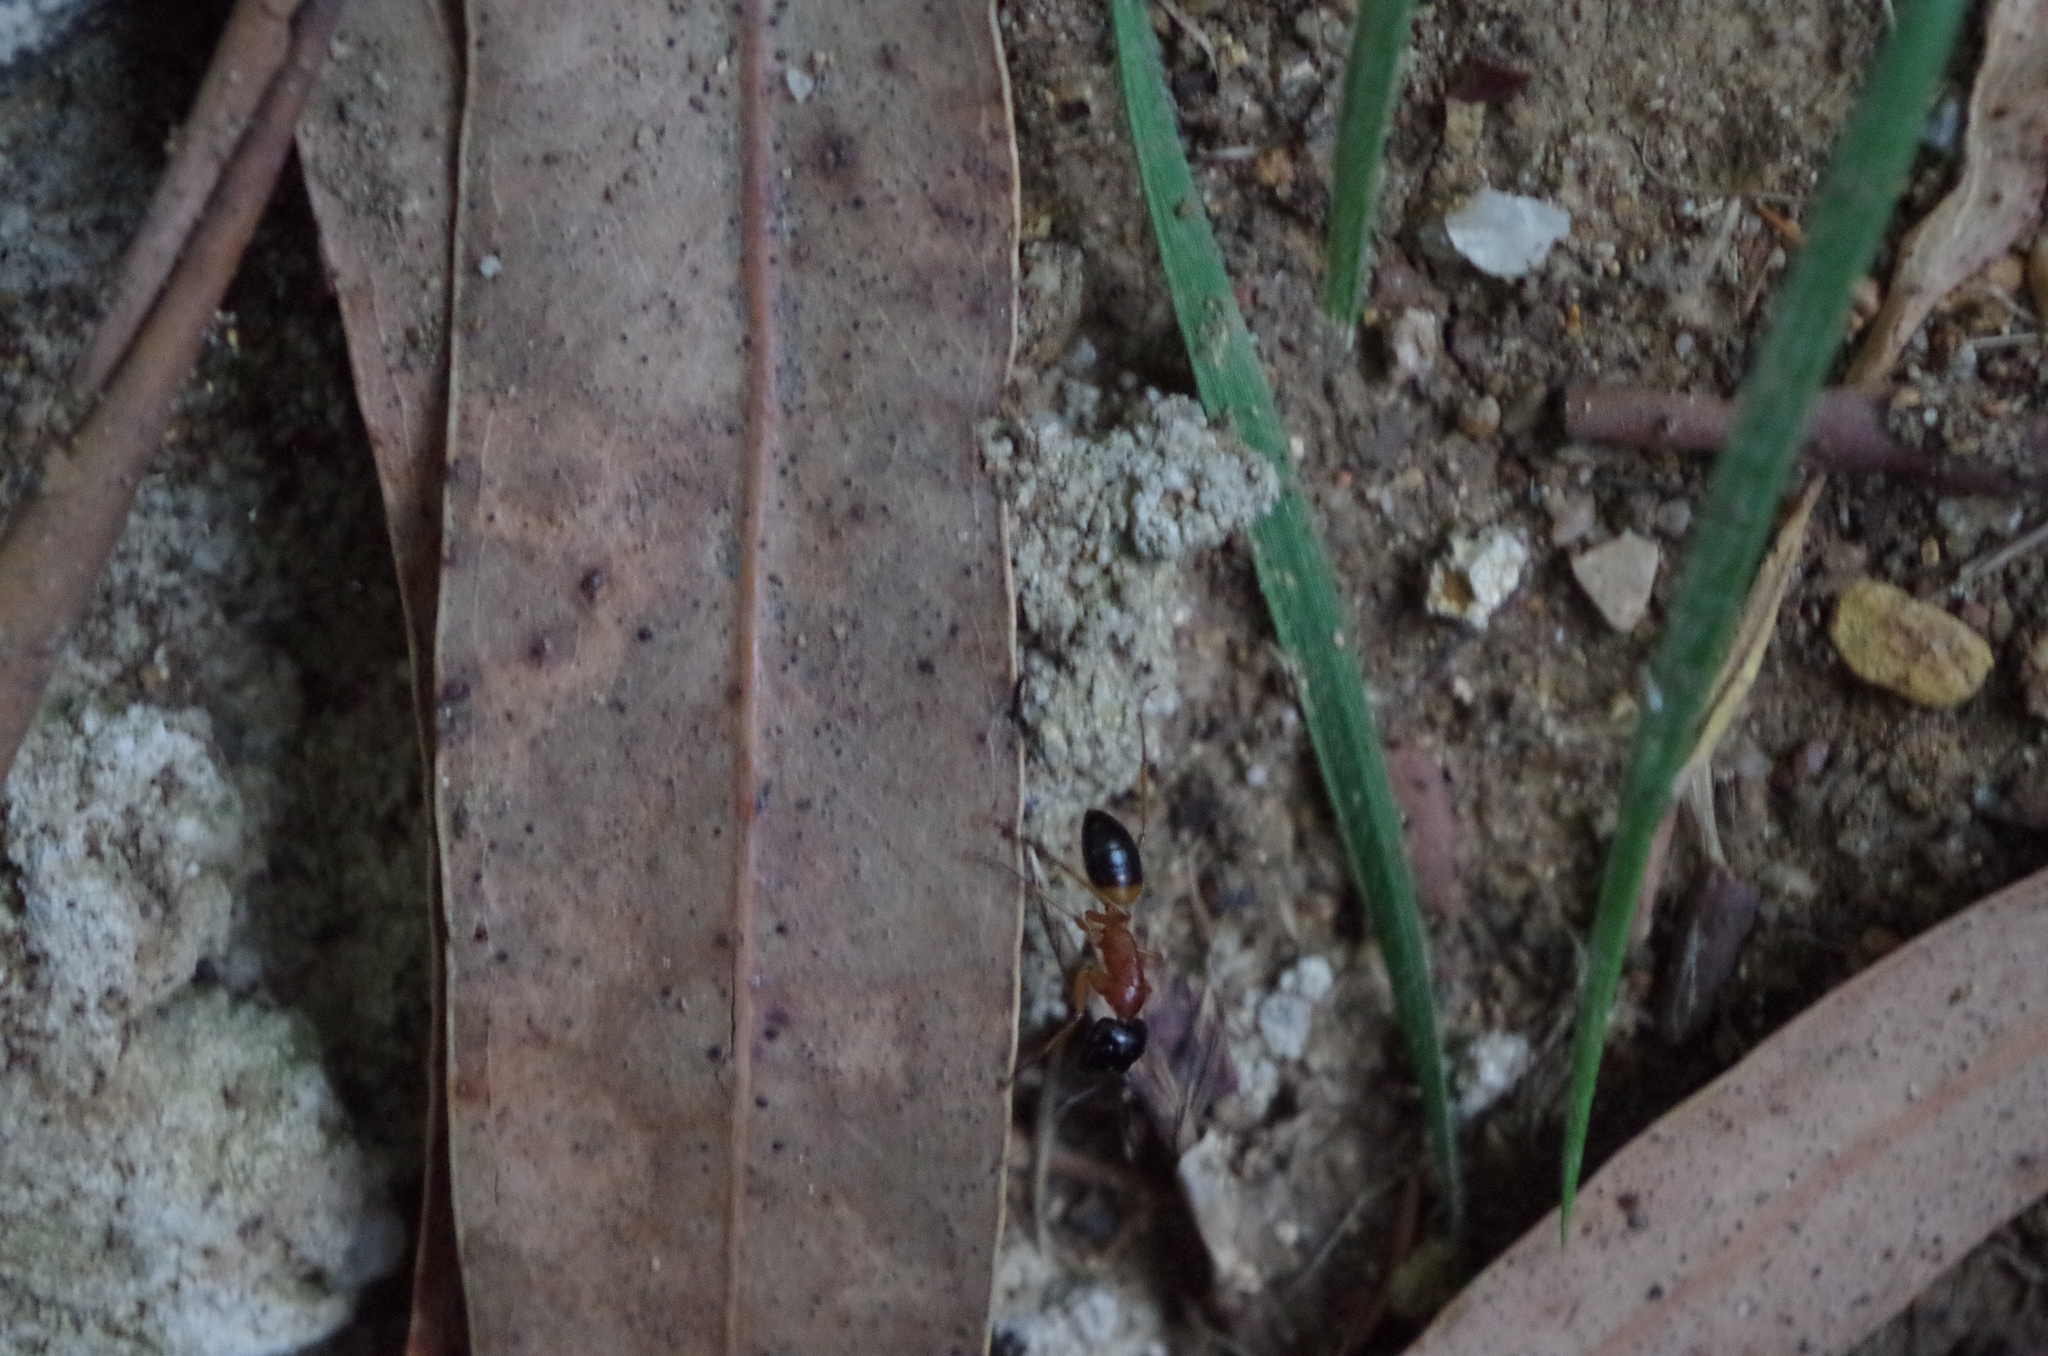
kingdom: Animalia
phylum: Arthropoda
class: Insecta
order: Hymenoptera
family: Formicidae
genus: Camponotus
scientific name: Camponotus consobrinus
